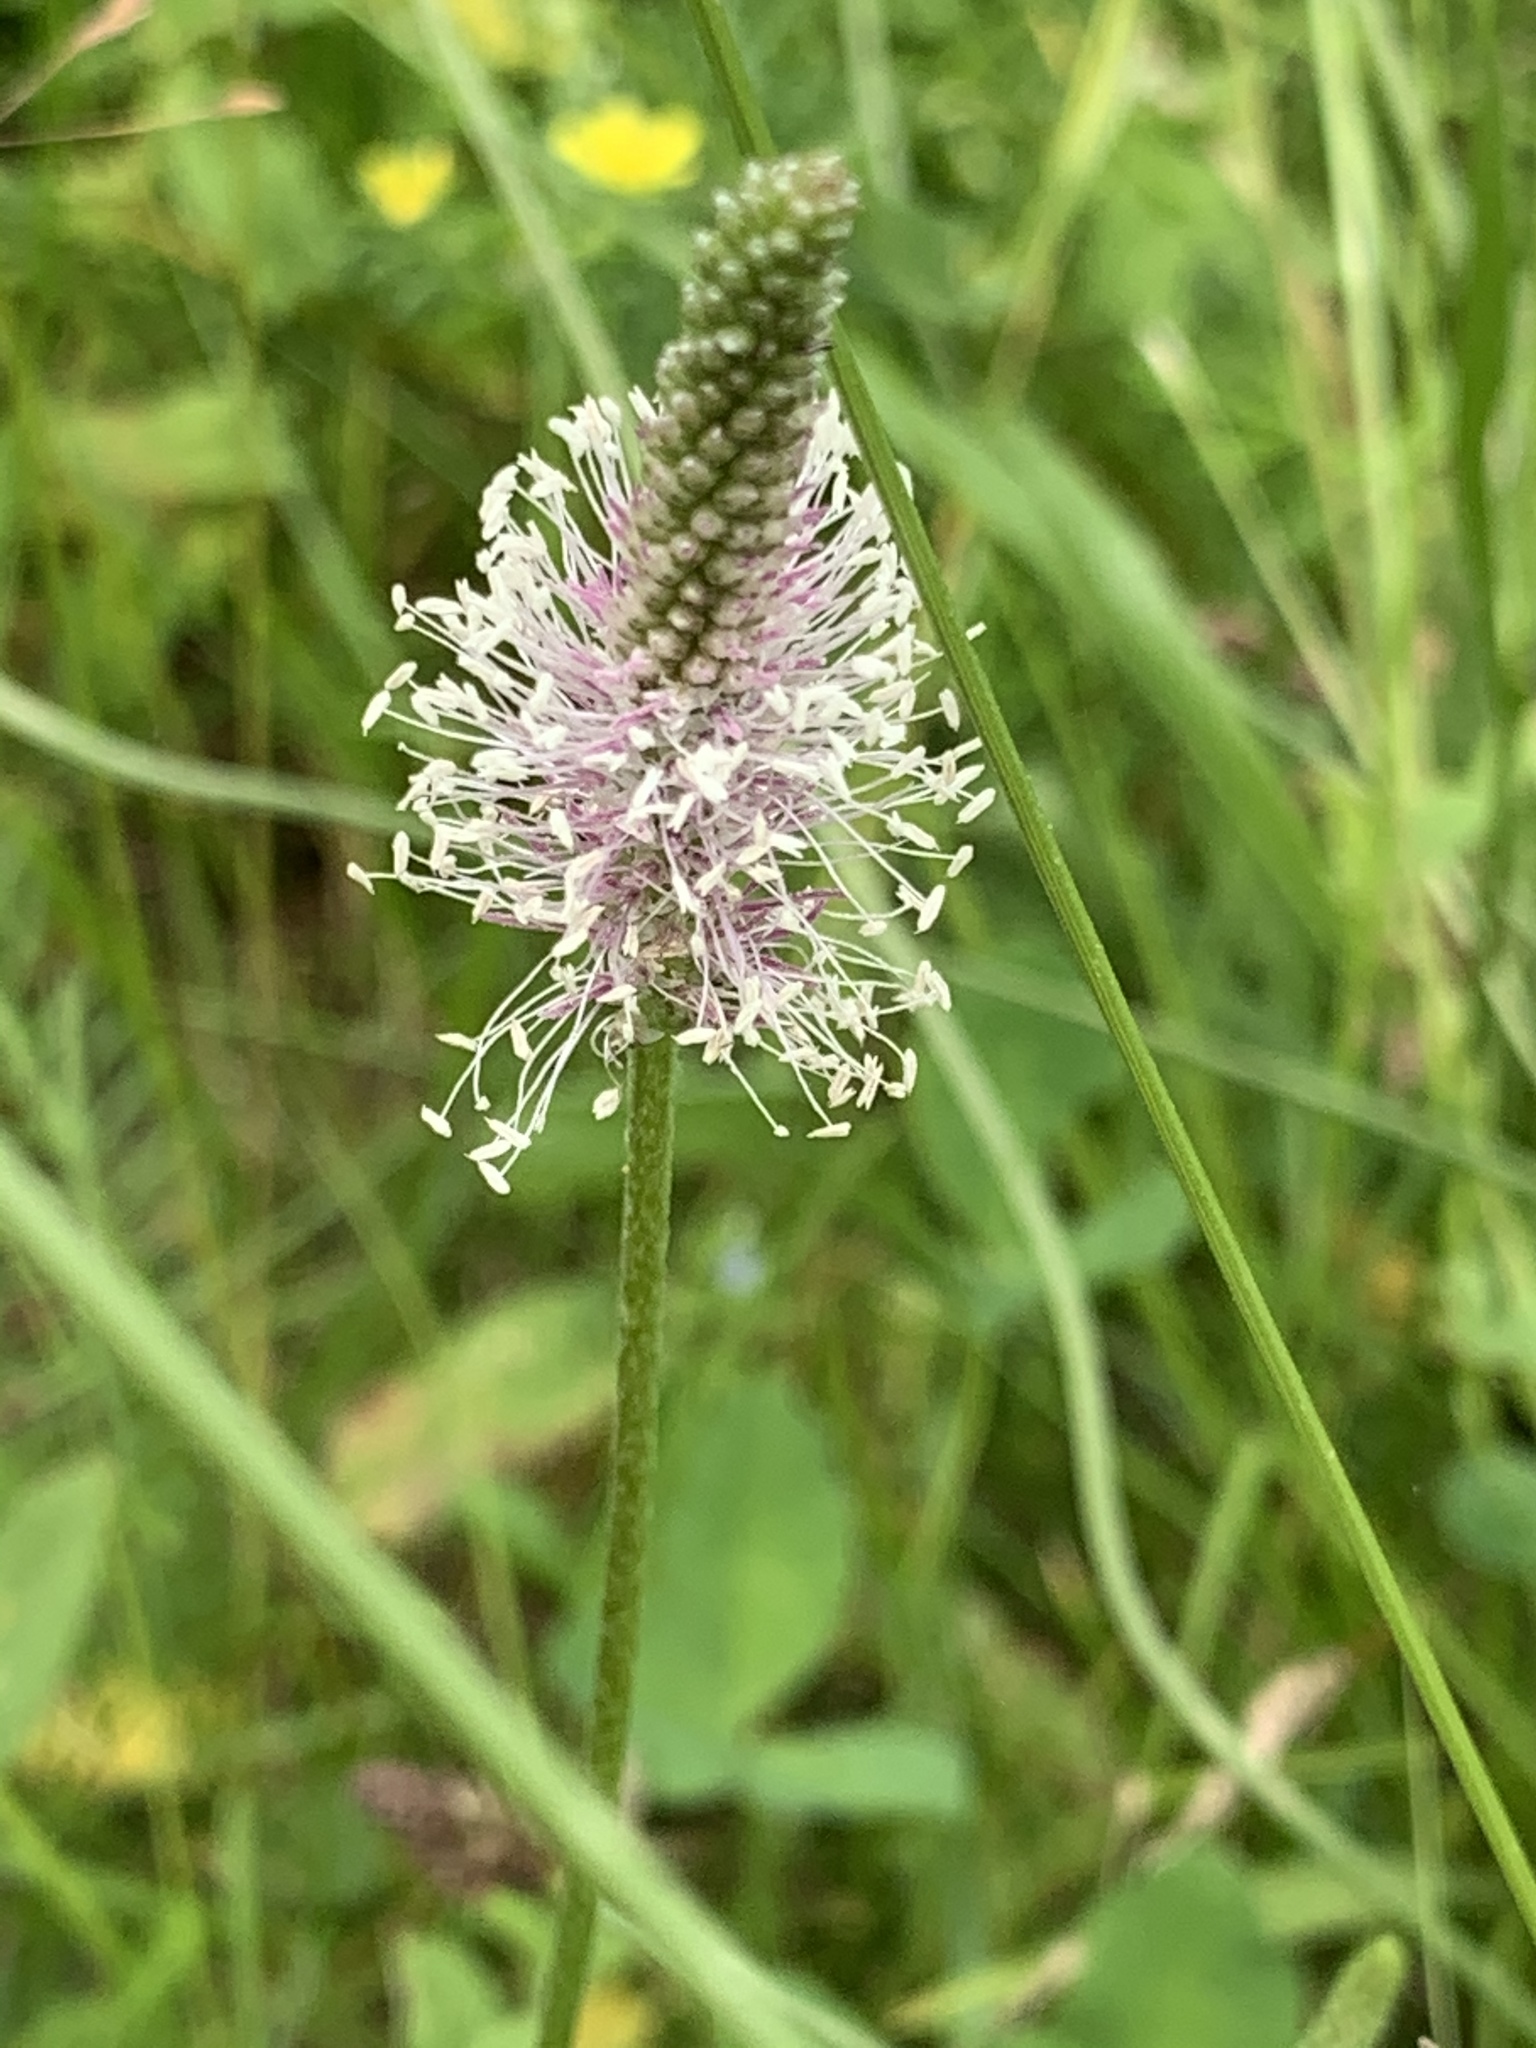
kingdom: Plantae
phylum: Tracheophyta
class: Magnoliopsida
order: Lamiales
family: Plantaginaceae
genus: Plantago
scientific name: Plantago media
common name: Hoary plantain
